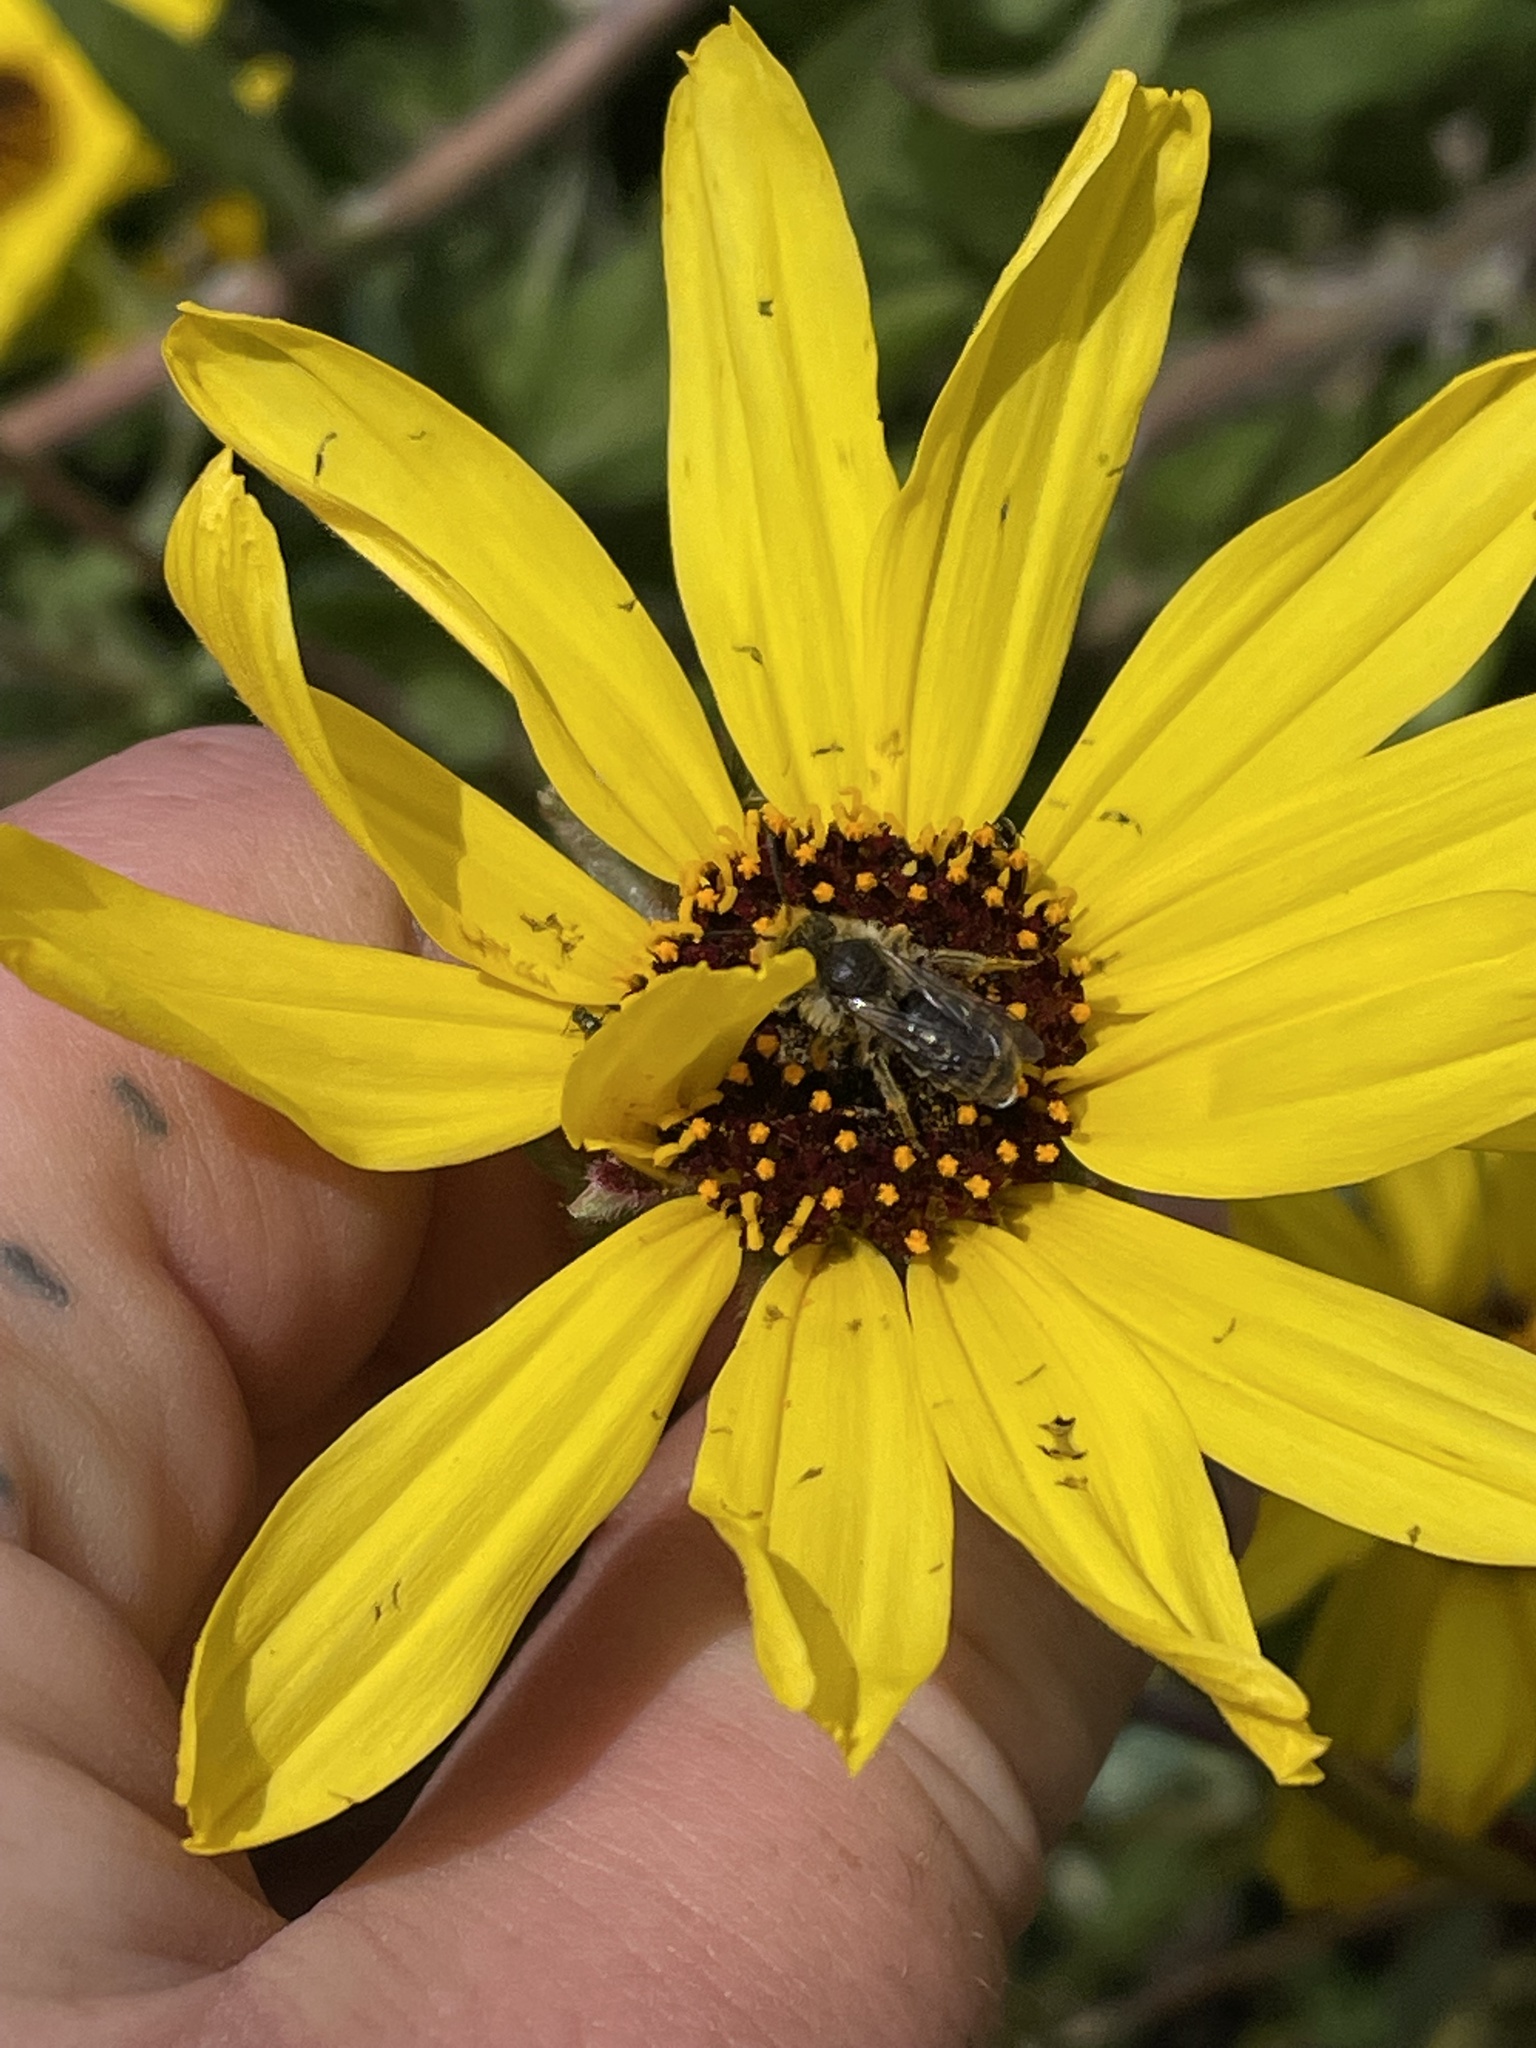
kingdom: Animalia
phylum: Arthropoda
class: Insecta
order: Hymenoptera
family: Halictidae
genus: Dufourea
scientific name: Dufourea australis
